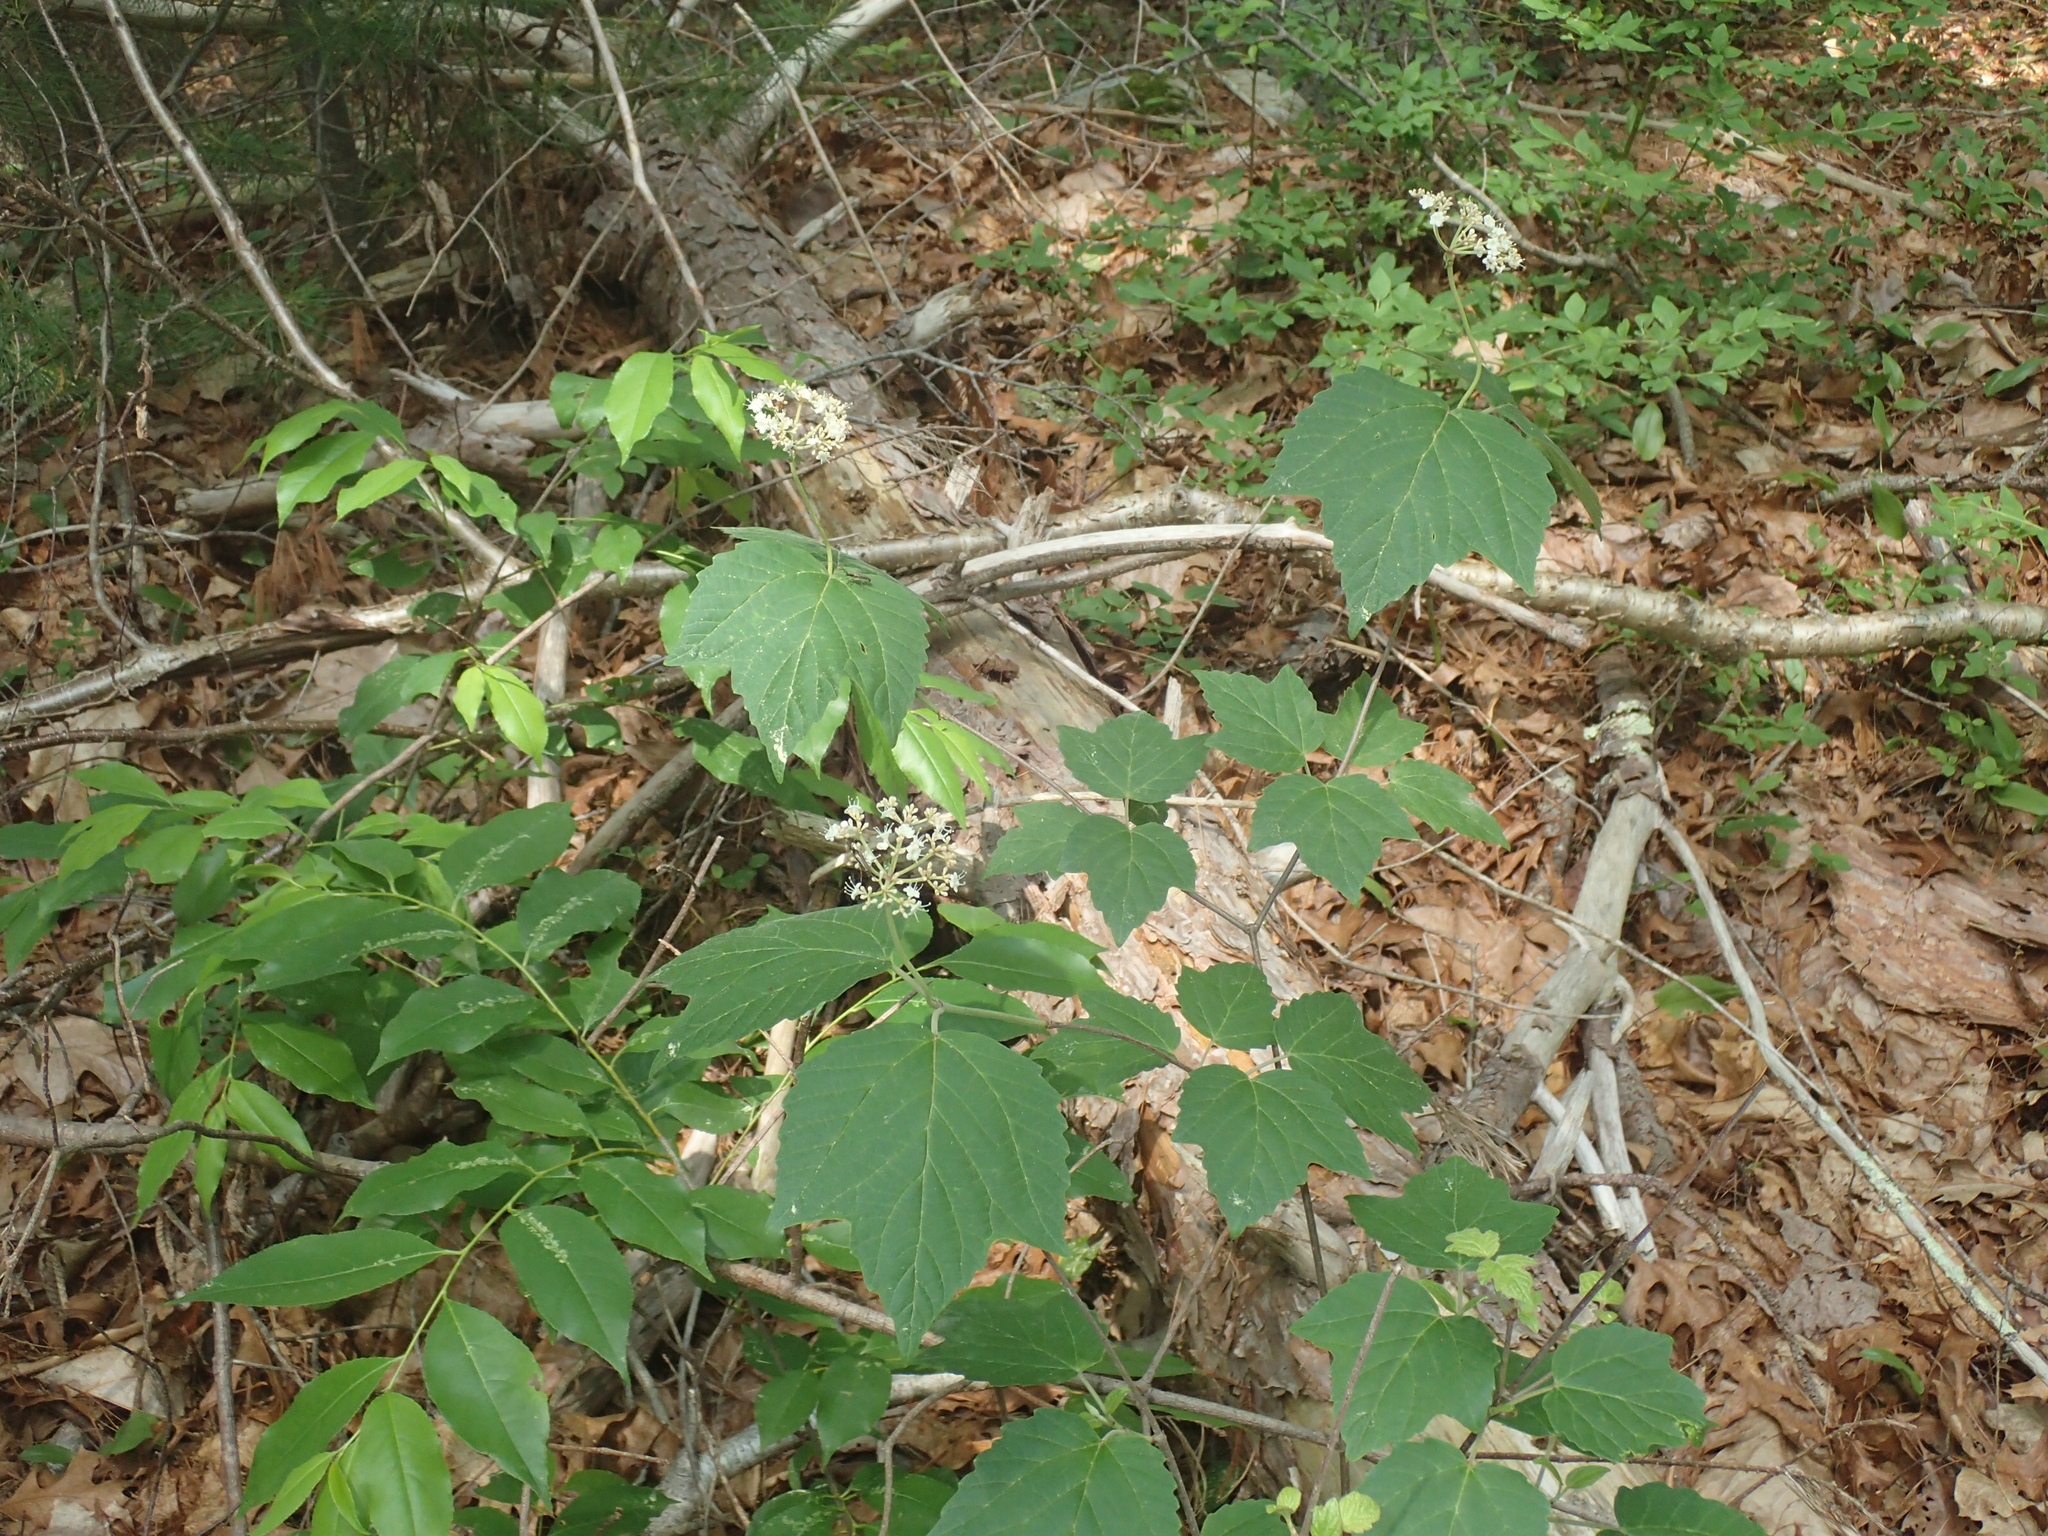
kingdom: Plantae
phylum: Tracheophyta
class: Magnoliopsida
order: Dipsacales
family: Viburnaceae
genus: Viburnum
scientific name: Viburnum acerifolium
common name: Dockmackie
